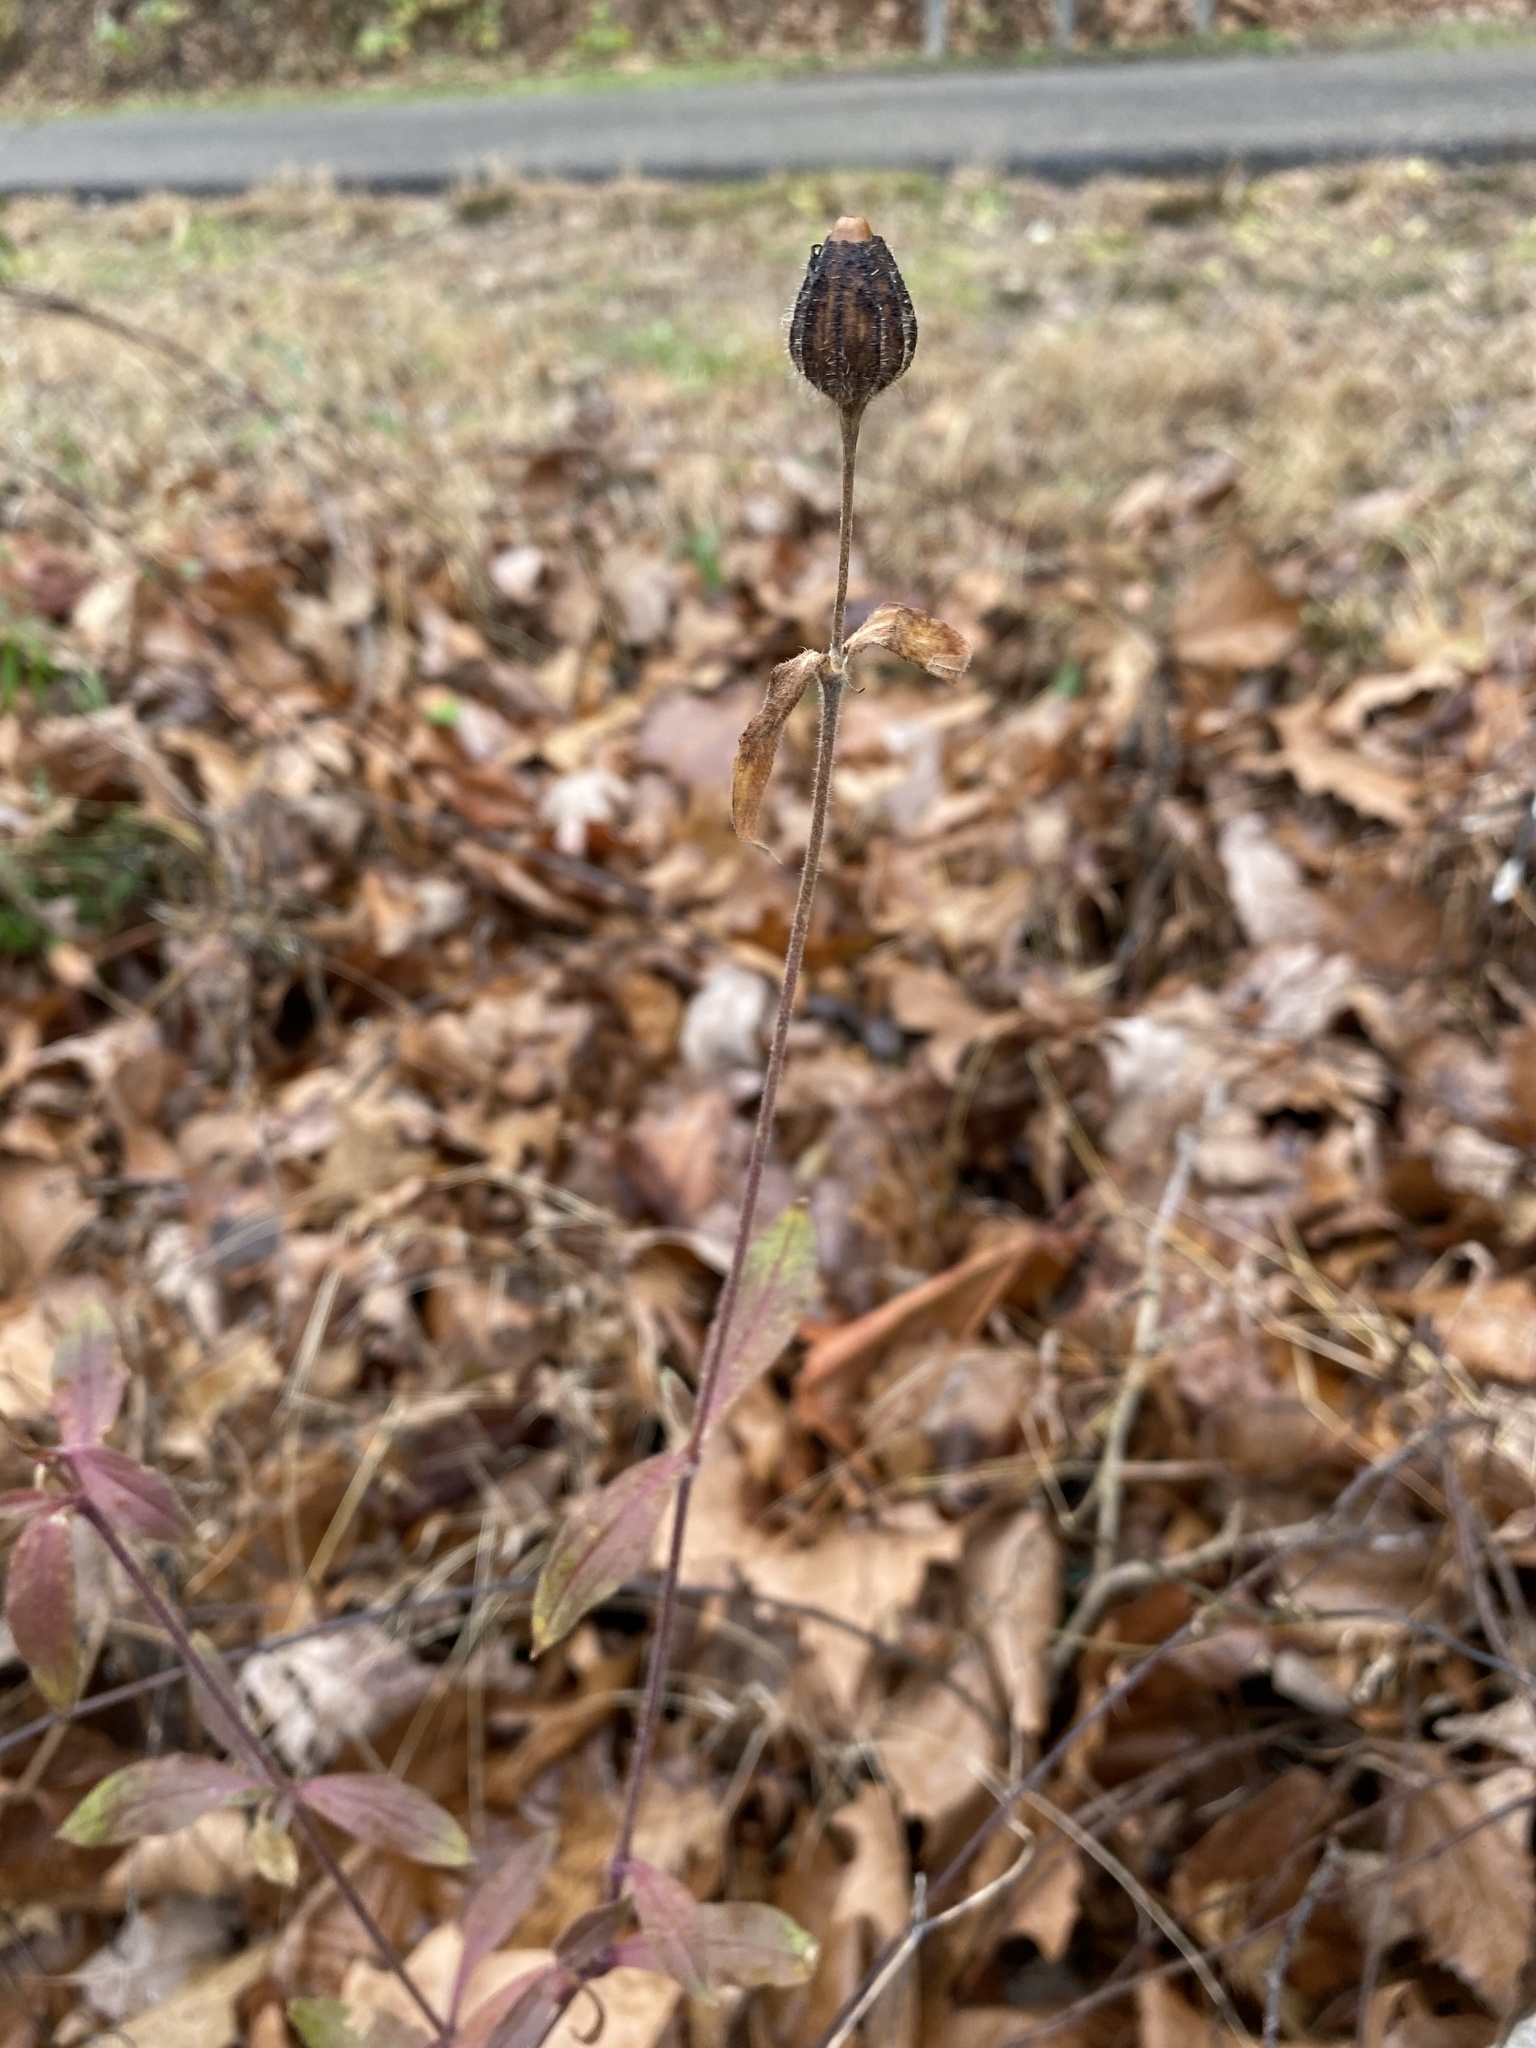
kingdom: Plantae
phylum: Tracheophyta
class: Magnoliopsida
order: Caryophyllales
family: Caryophyllaceae
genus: Silene
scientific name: Silene latifolia
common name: White campion
